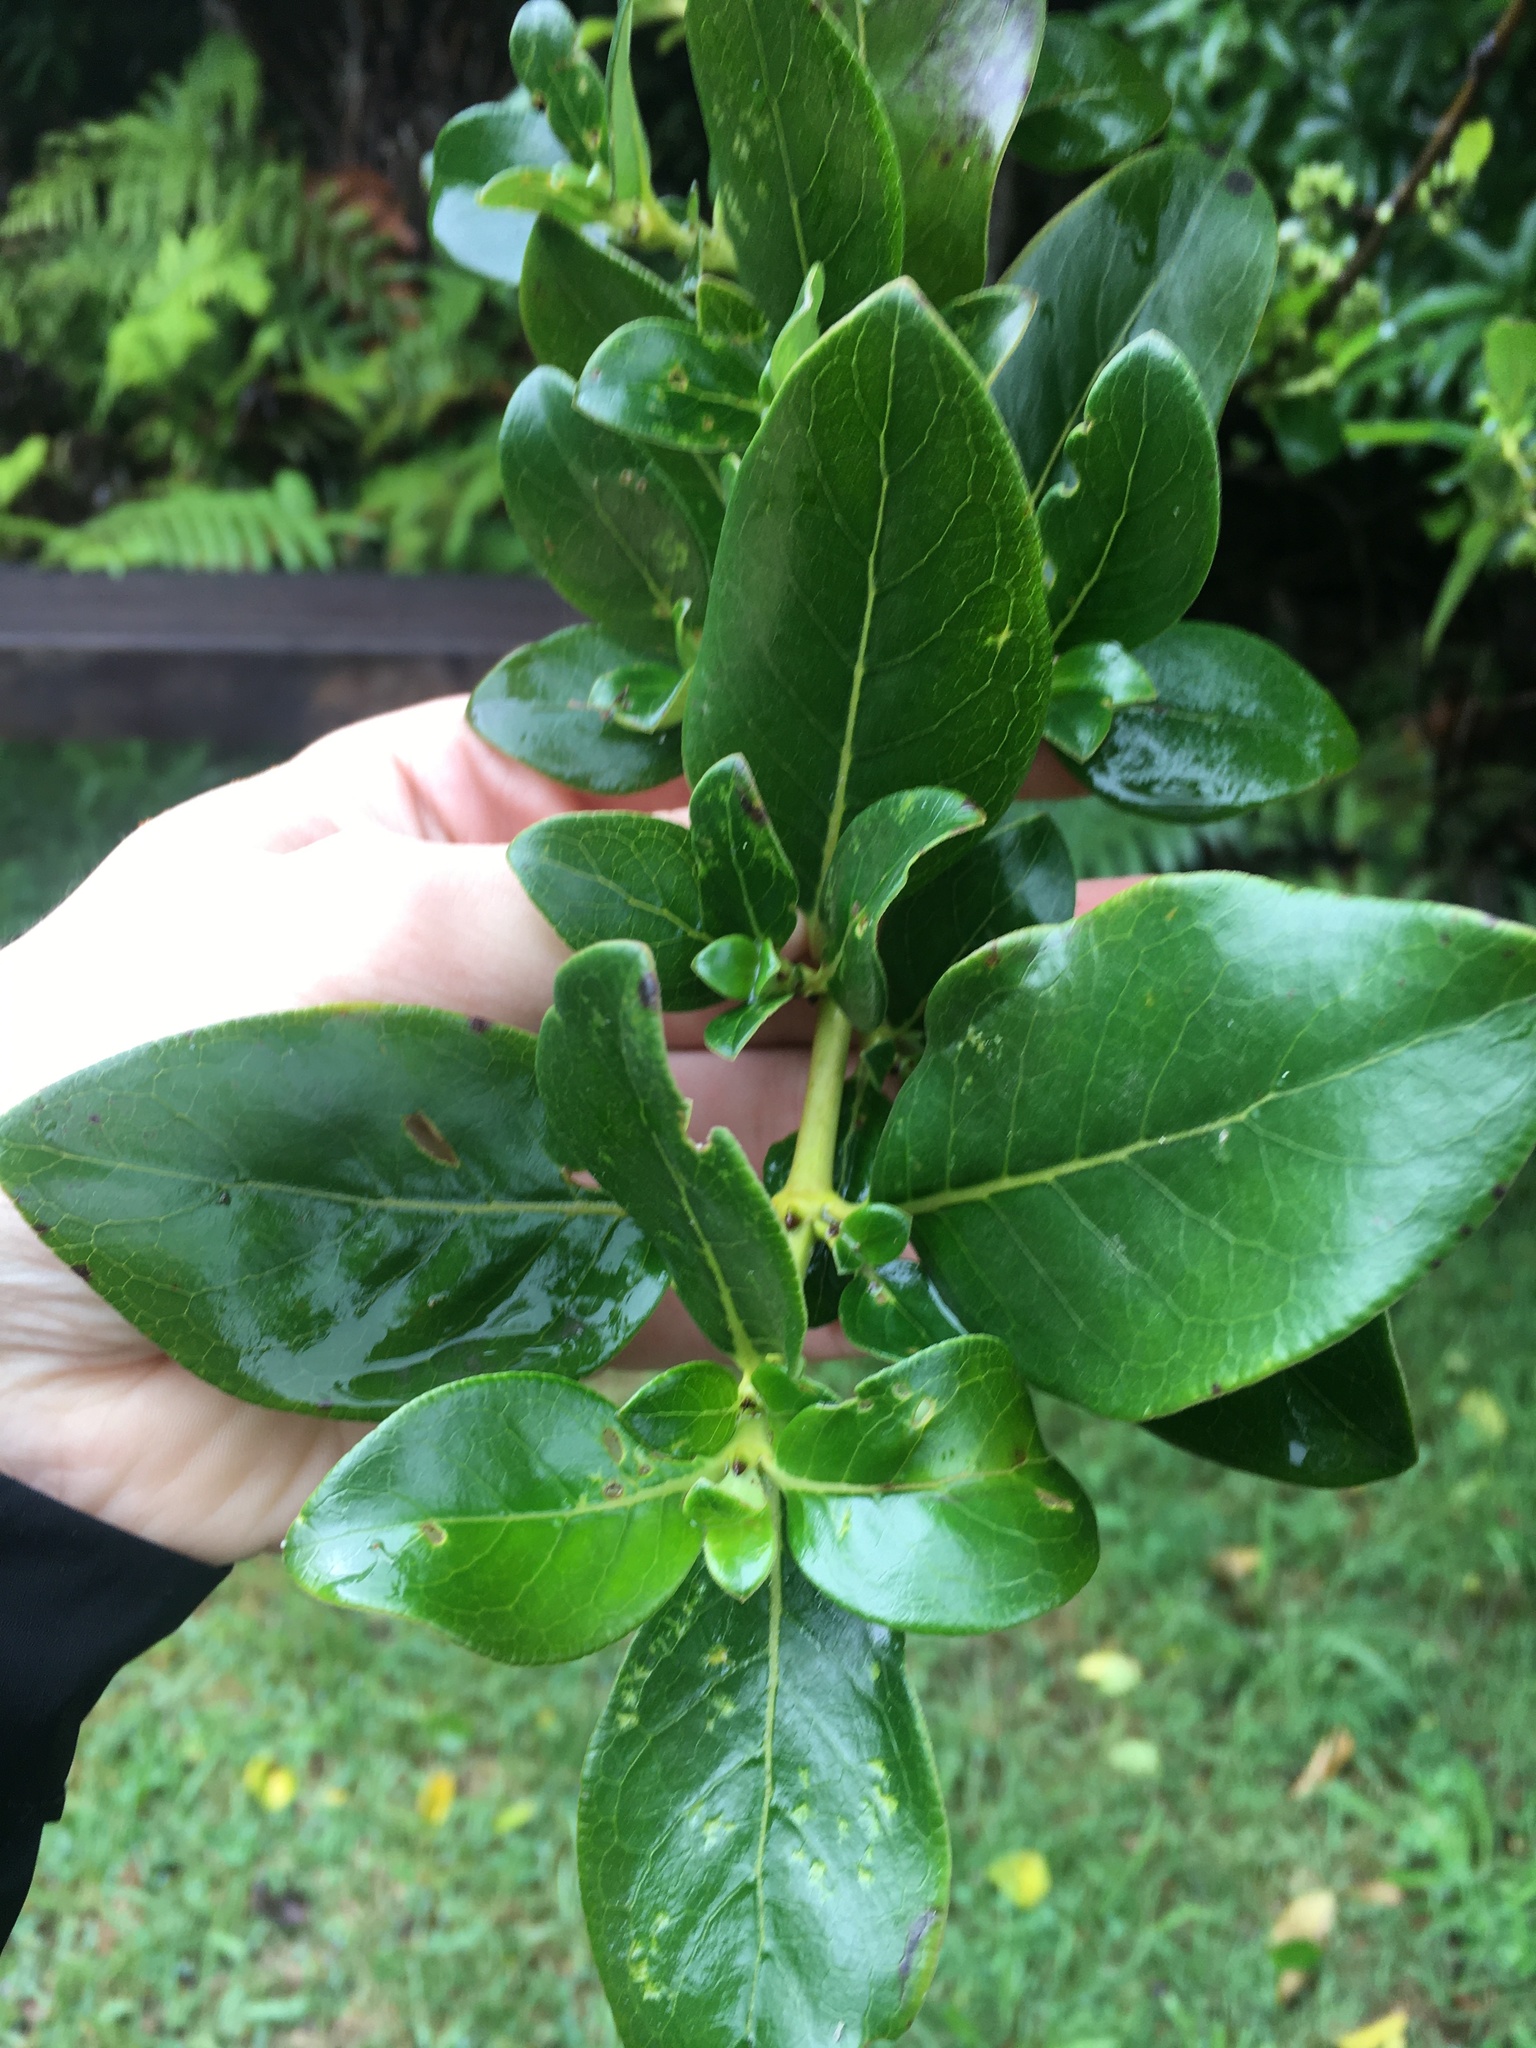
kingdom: Plantae
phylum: Tracheophyta
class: Magnoliopsida
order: Gentianales
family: Rubiaceae
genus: Coprosma
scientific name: Coprosma robusta
